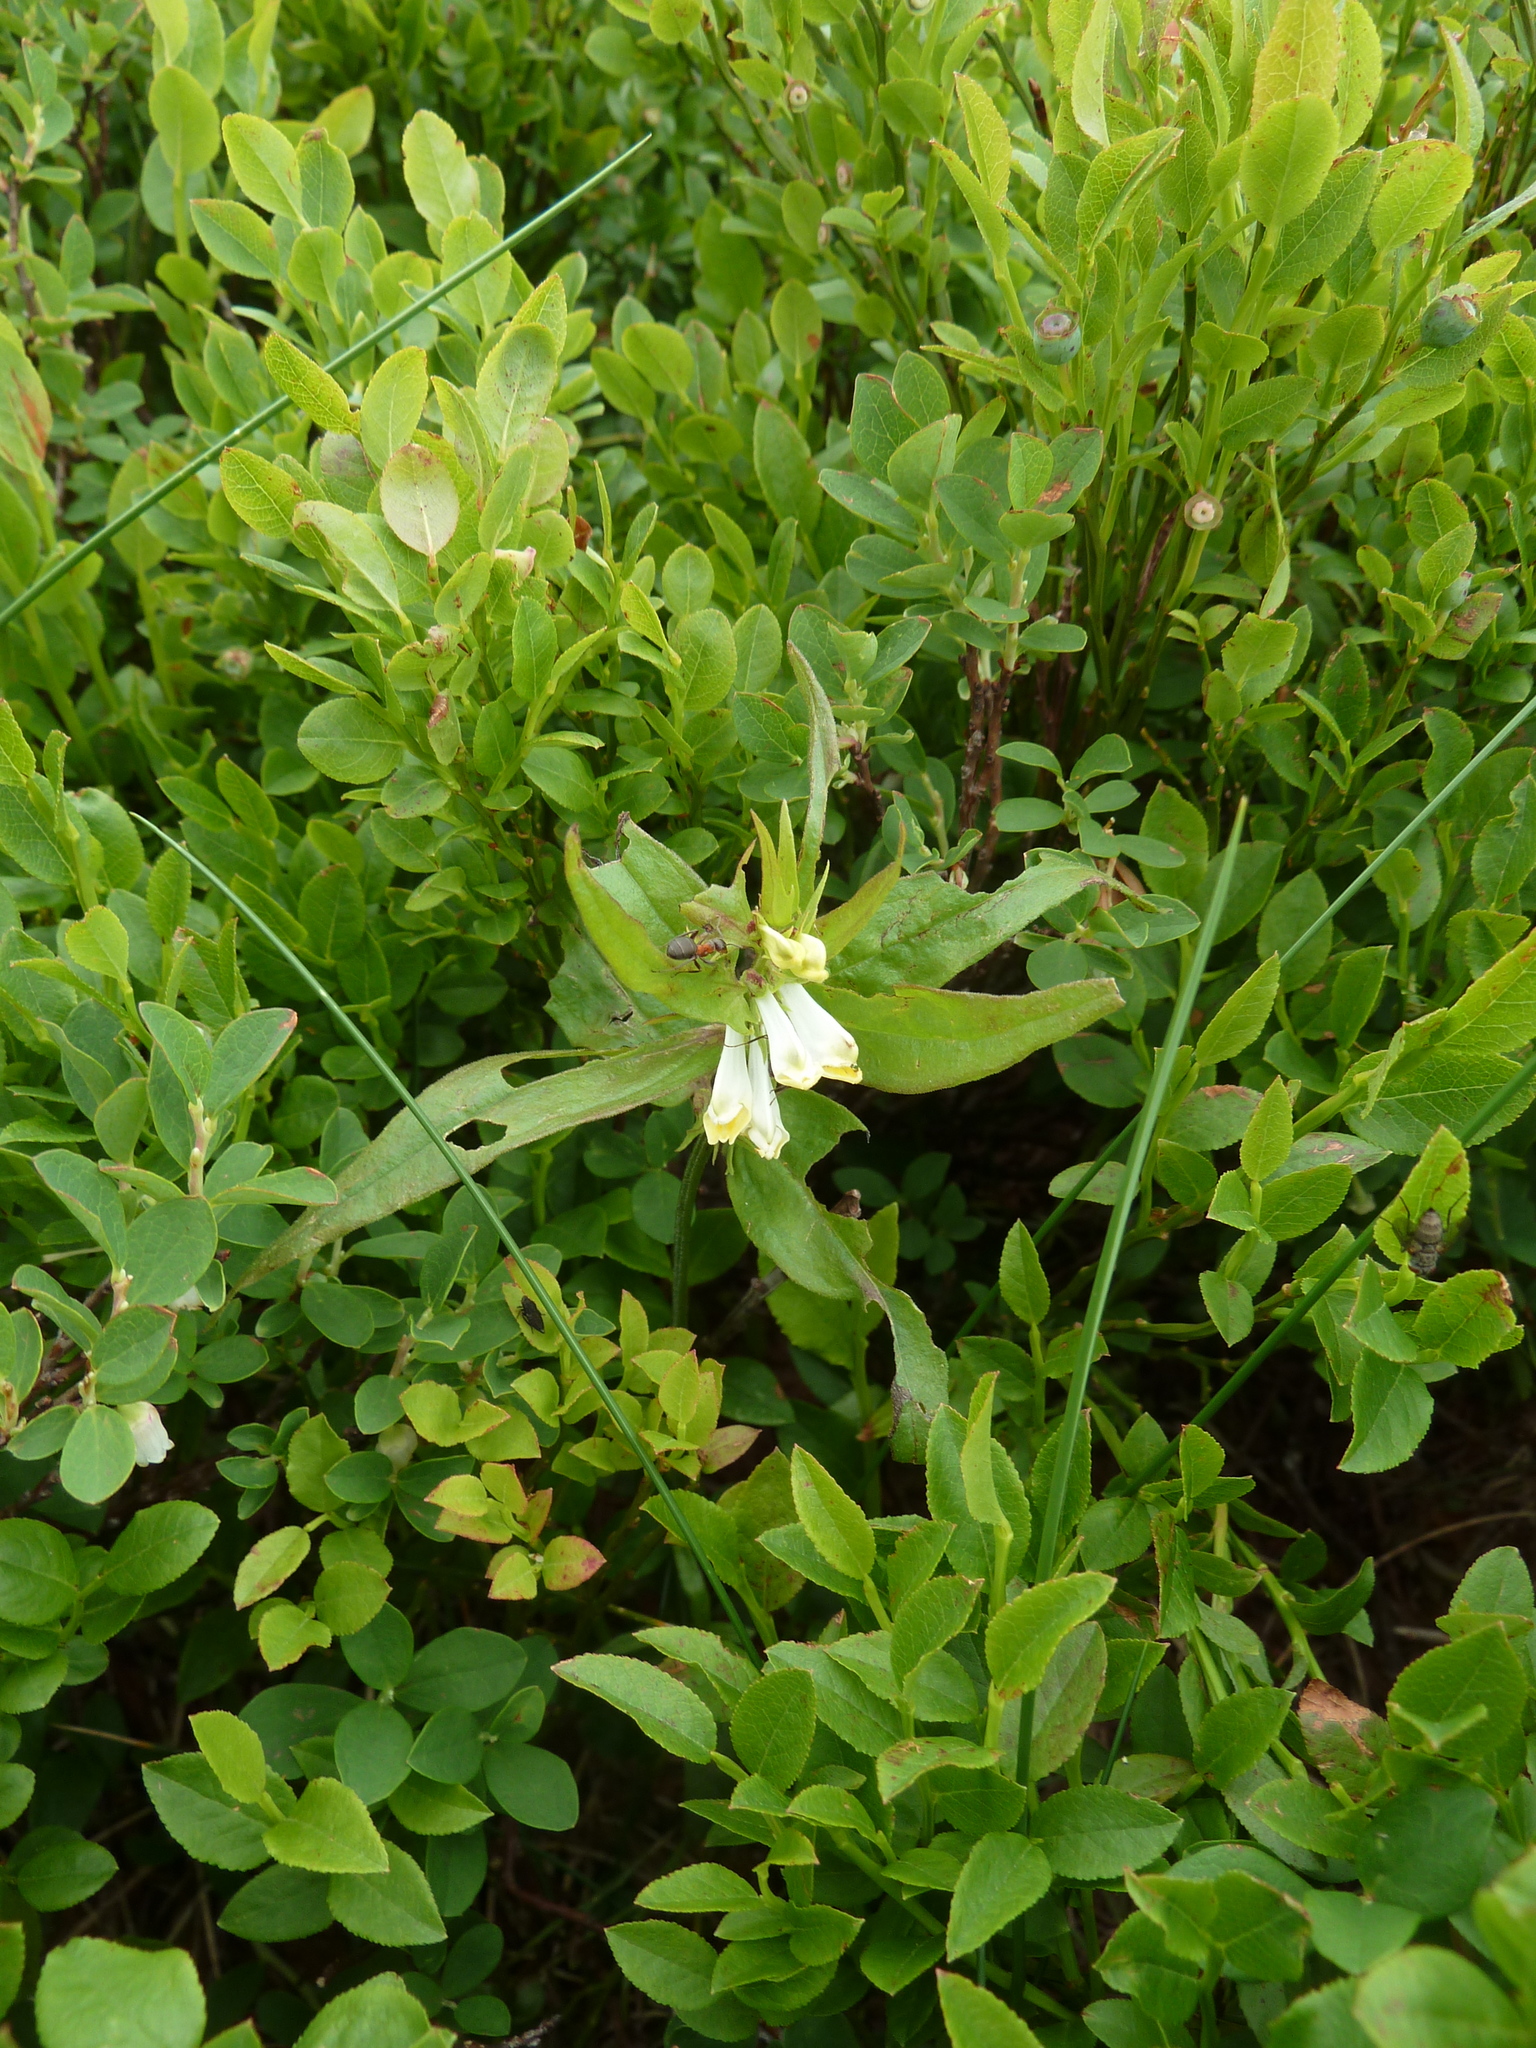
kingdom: Plantae
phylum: Tracheophyta
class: Magnoliopsida
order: Lamiales
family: Orobanchaceae
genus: Melampyrum
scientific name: Melampyrum pratense
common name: Common cow-wheat
